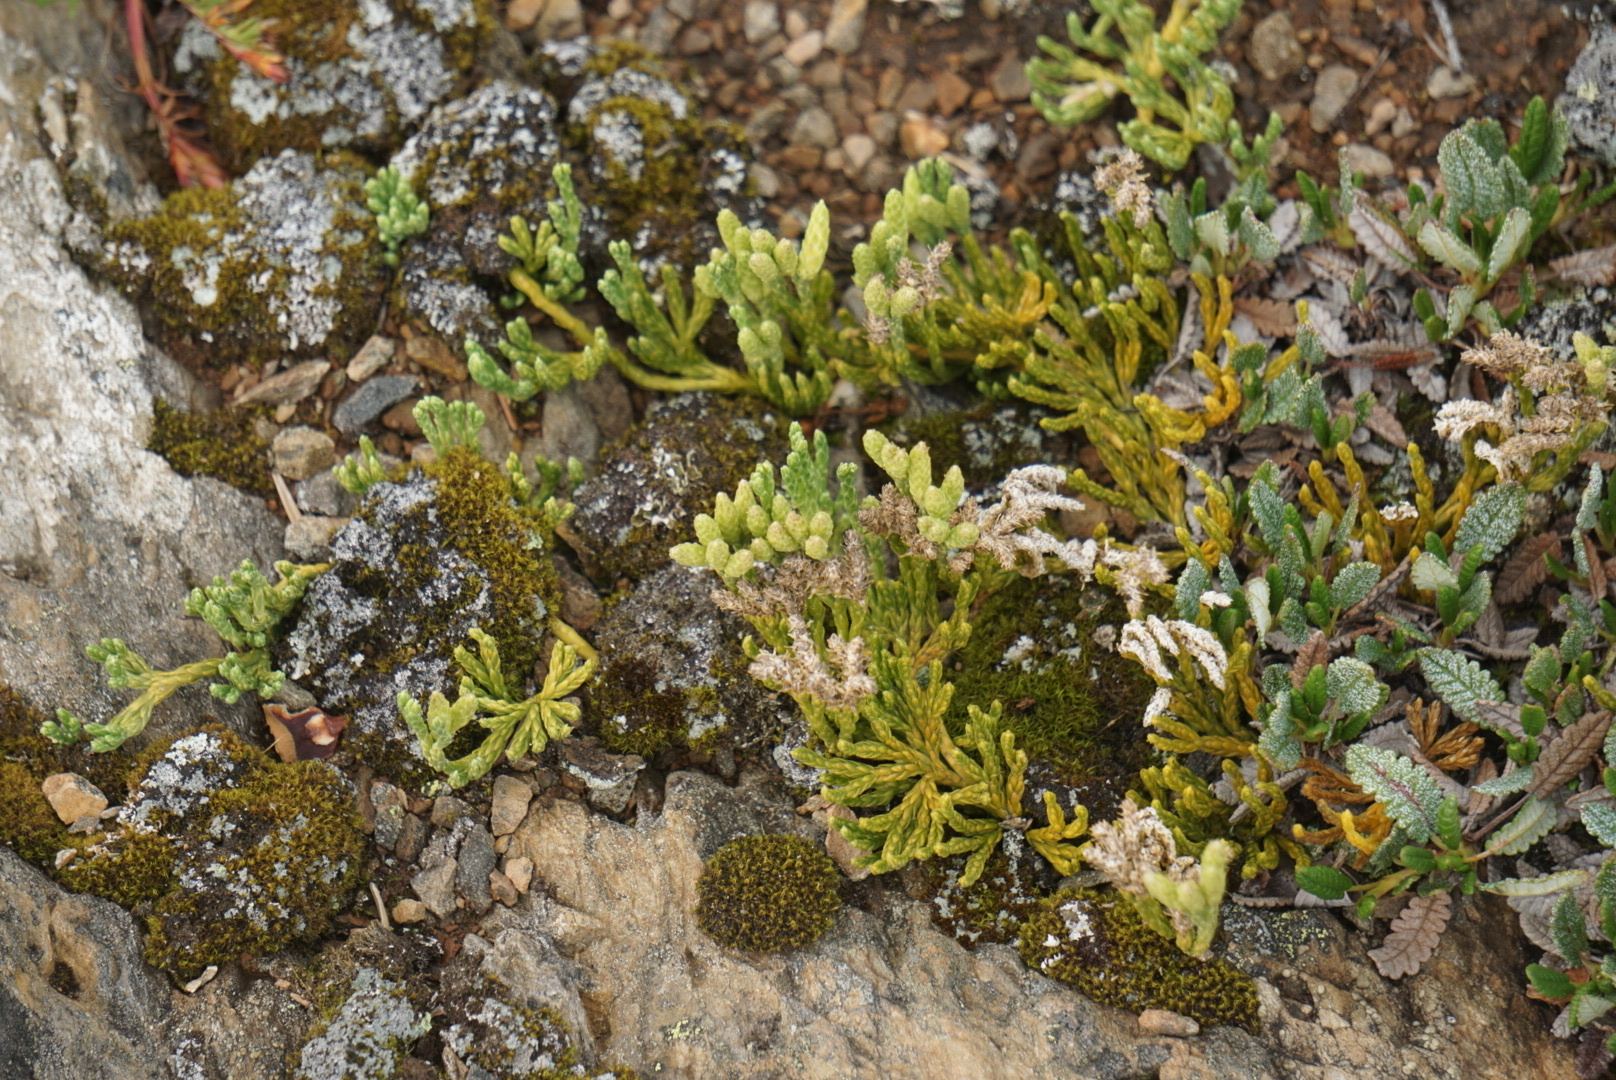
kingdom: Plantae
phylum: Tracheophyta
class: Lycopodiopsida
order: Lycopodiales
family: Lycopodiaceae
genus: Diphasiastrum
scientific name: Diphasiastrum alpinum
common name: Alpine clubmoss
